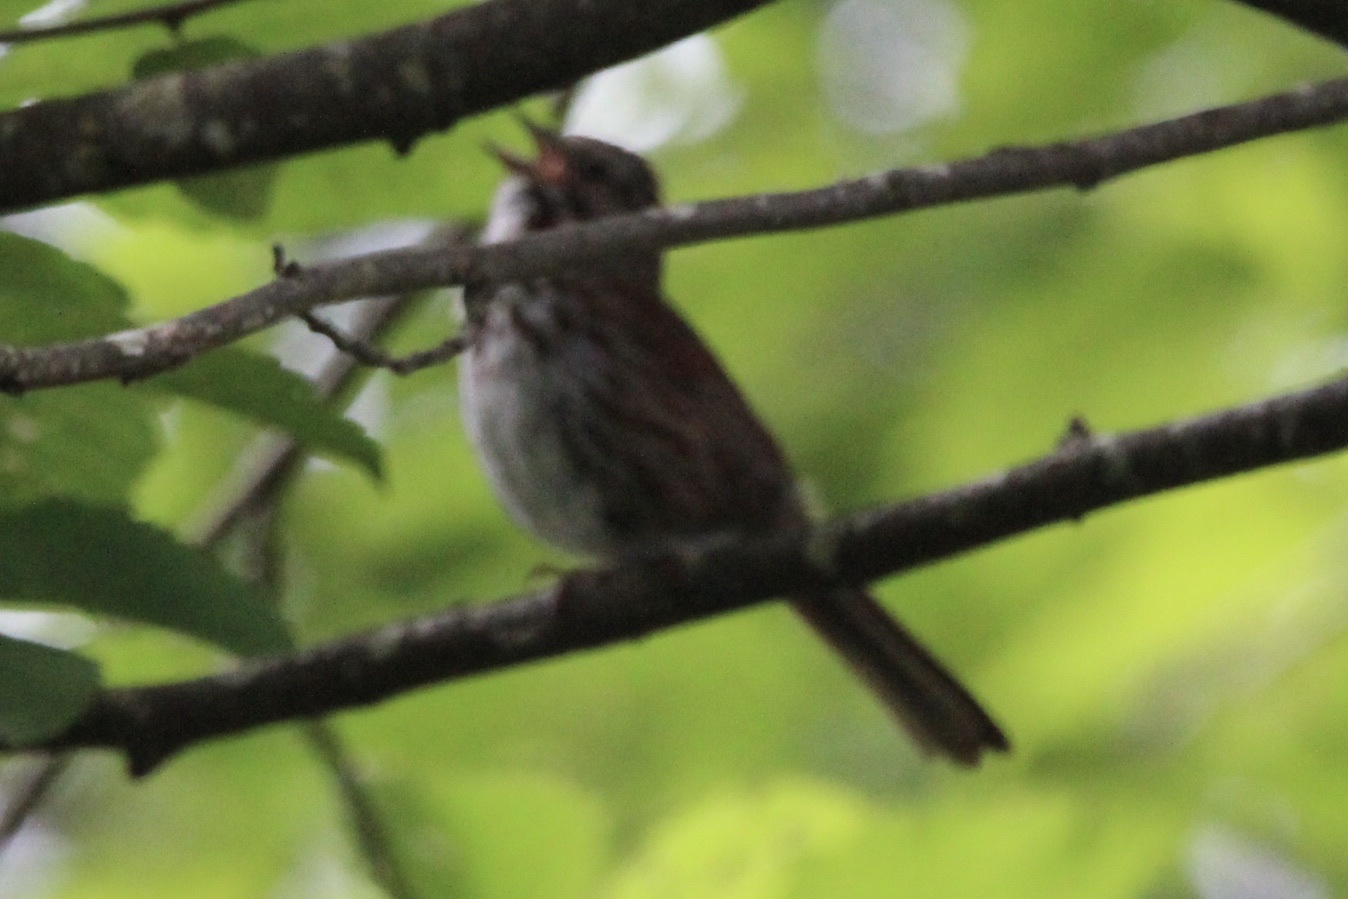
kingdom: Animalia
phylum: Chordata
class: Aves
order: Passeriformes
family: Passerellidae
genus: Melospiza
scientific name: Melospiza melodia
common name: Song sparrow
